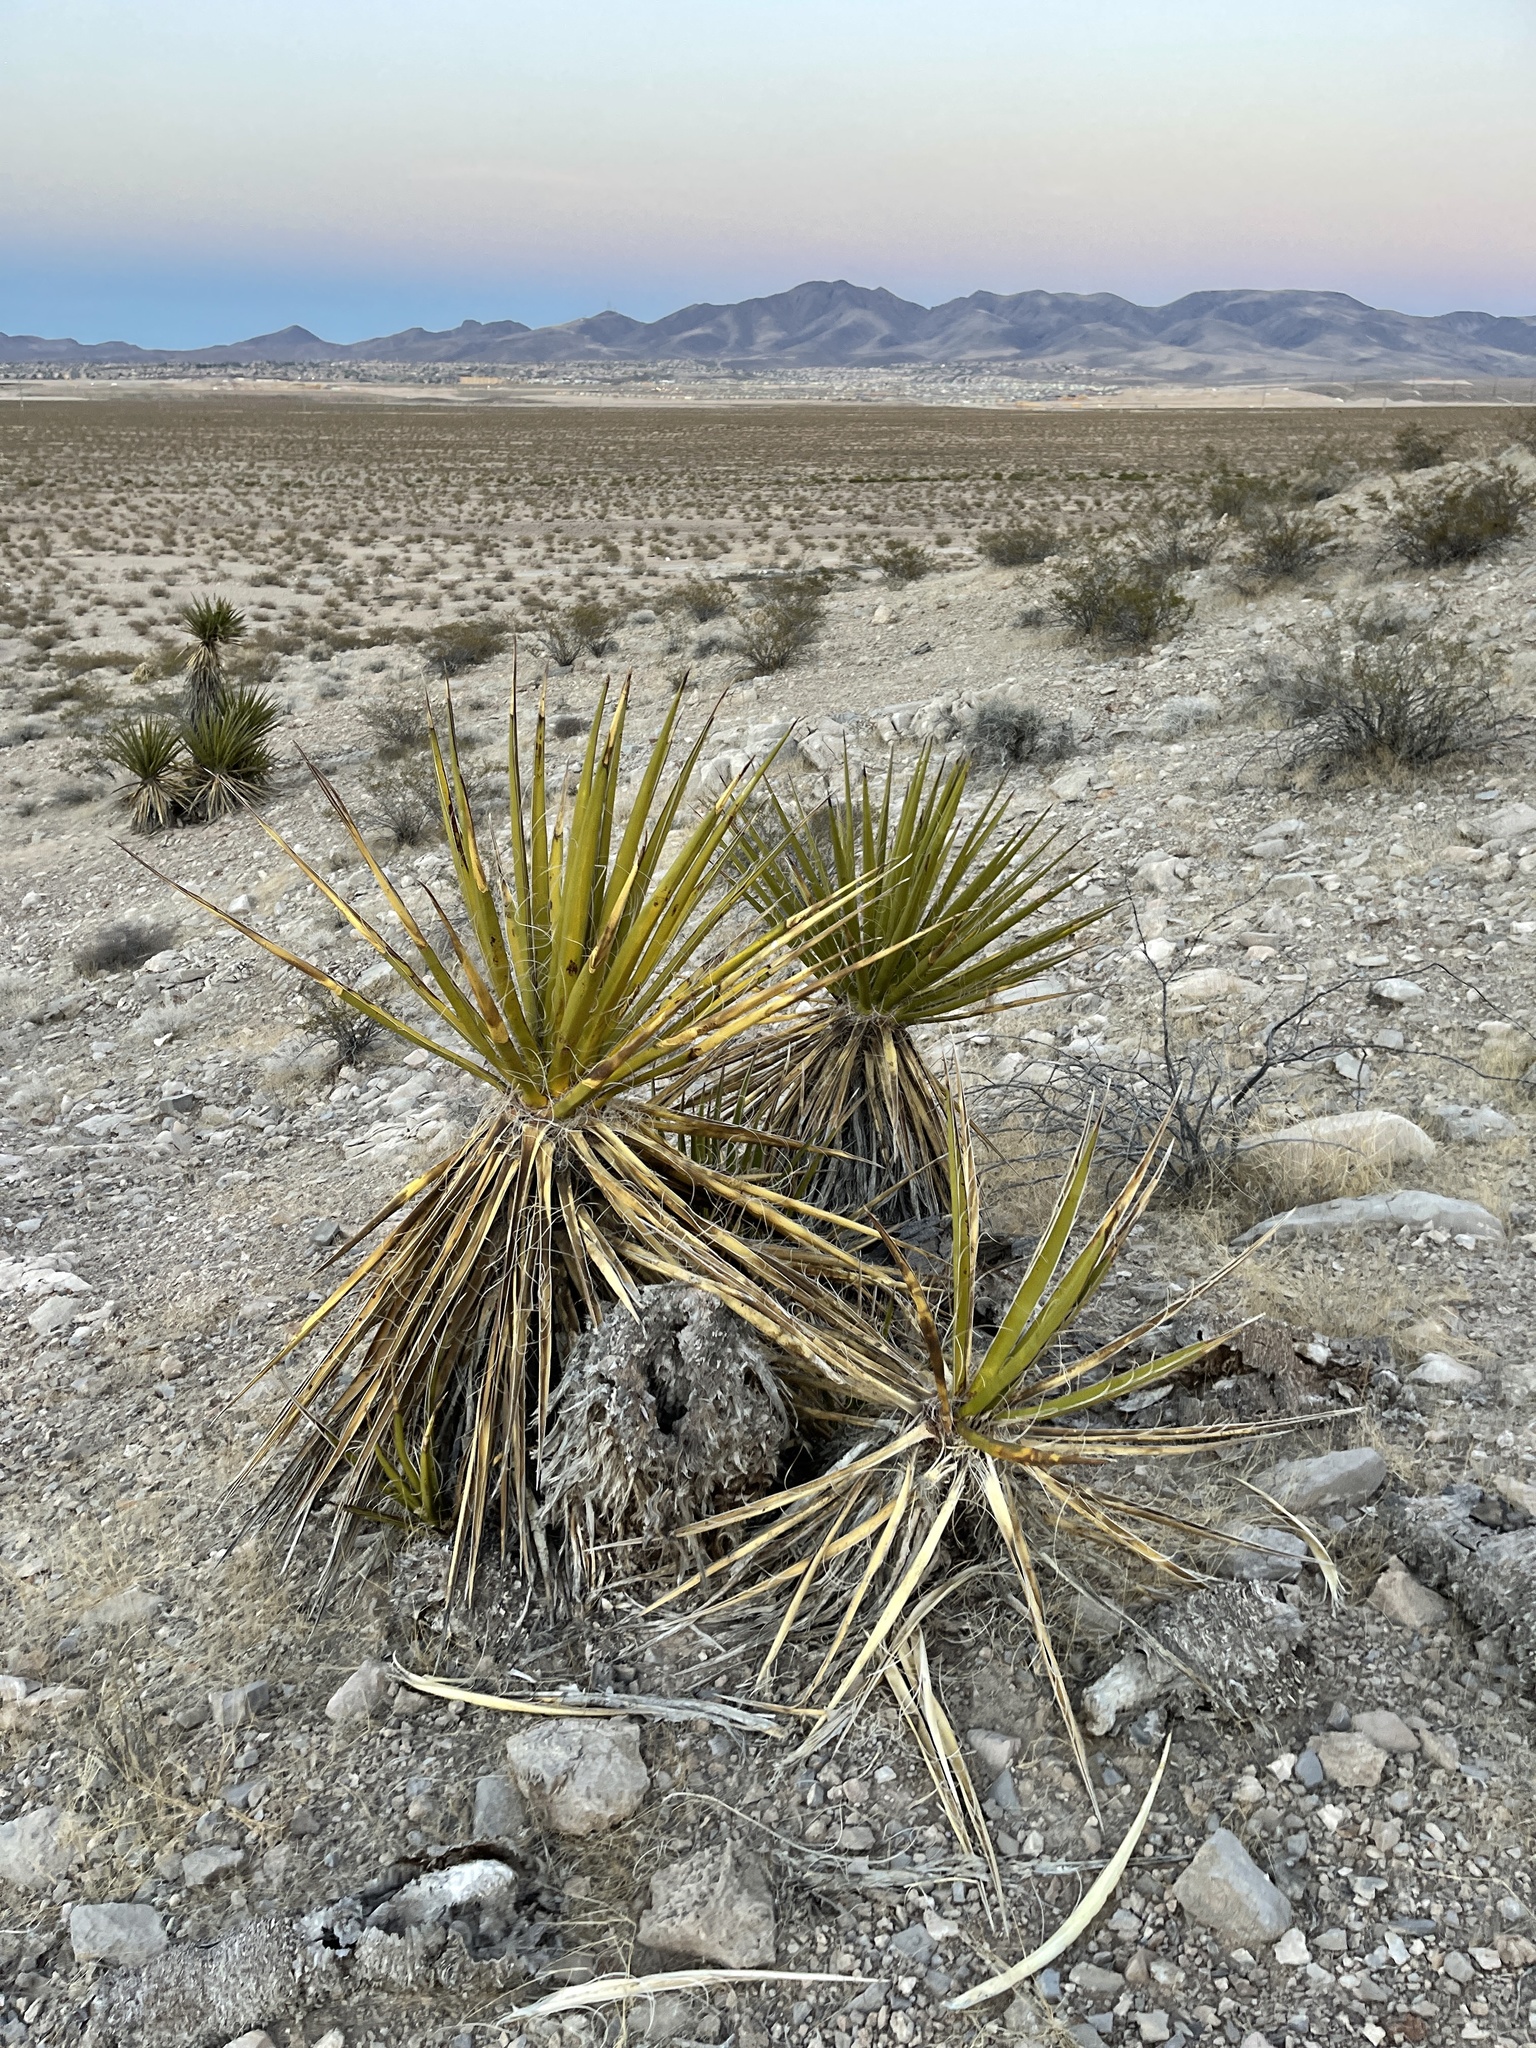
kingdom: Plantae
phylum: Tracheophyta
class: Liliopsida
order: Asparagales
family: Asparagaceae
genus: Yucca
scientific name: Yucca schidigera
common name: Mojave yucca
